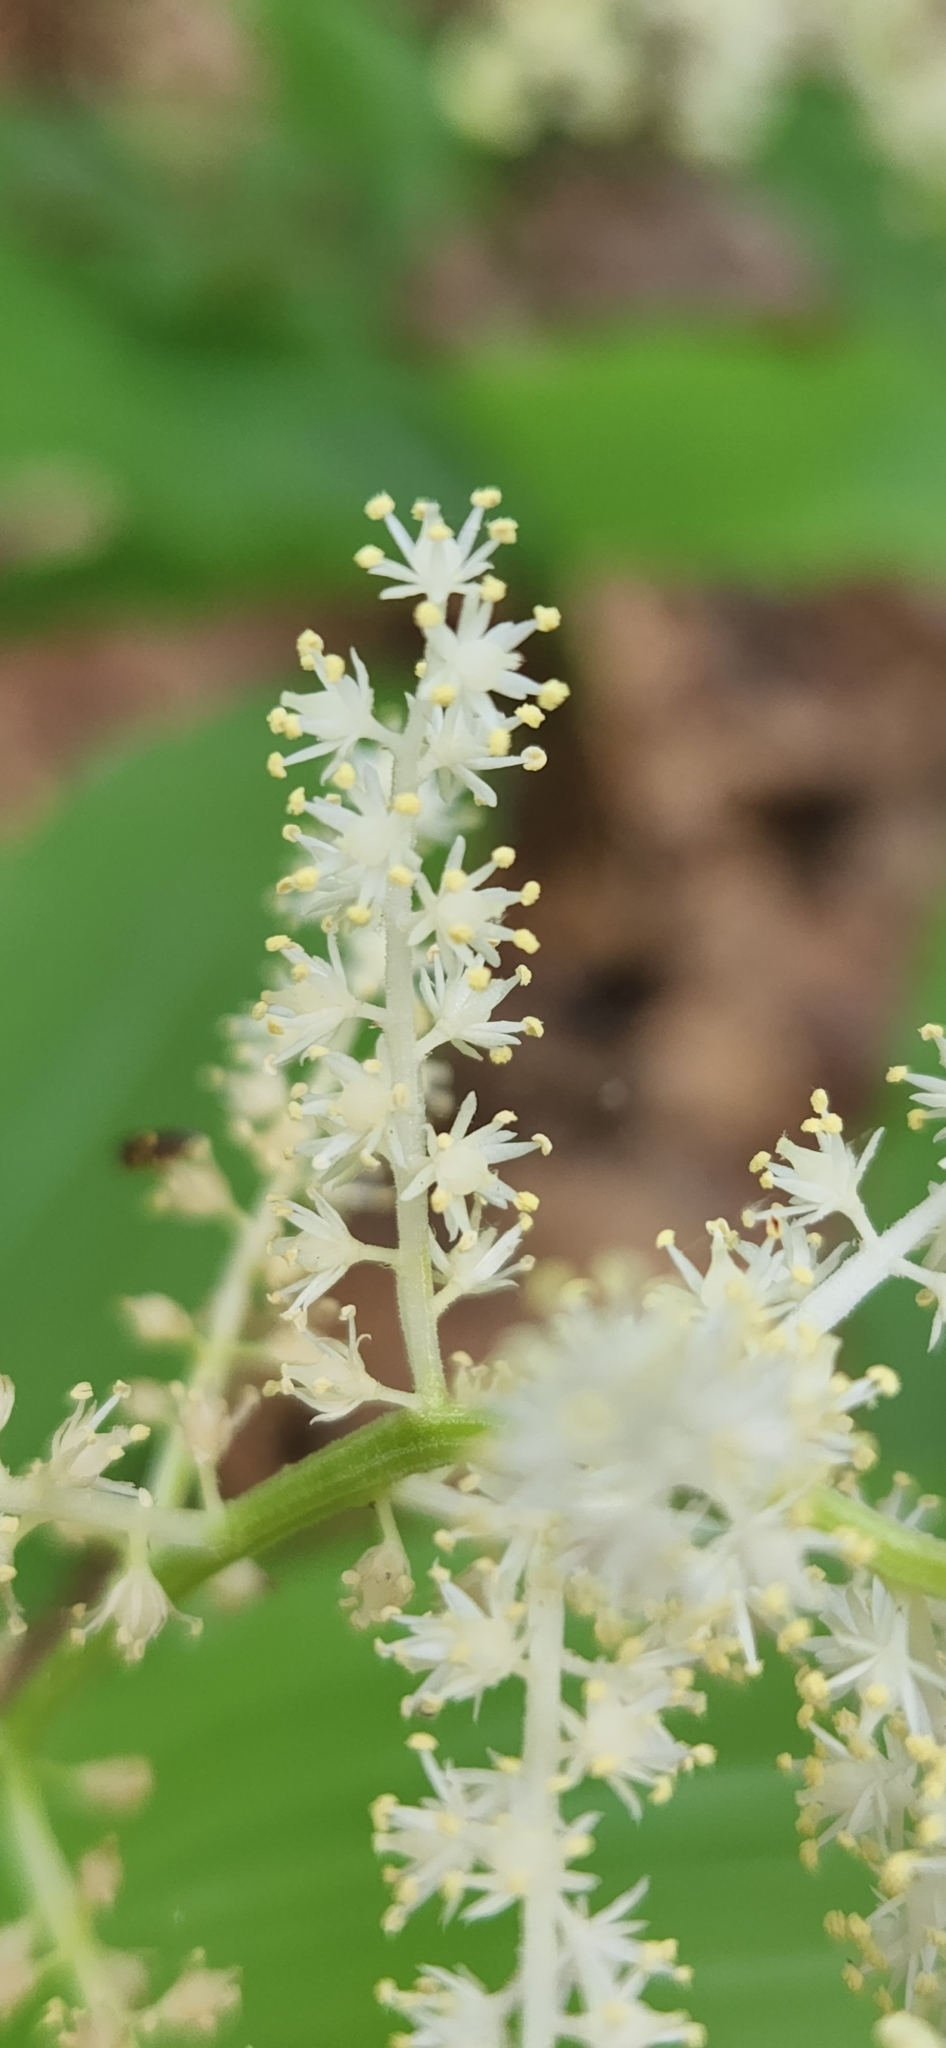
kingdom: Plantae
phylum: Tracheophyta
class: Liliopsida
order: Asparagales
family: Asparagaceae
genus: Maianthemum
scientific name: Maianthemum racemosum
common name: False spikenard
